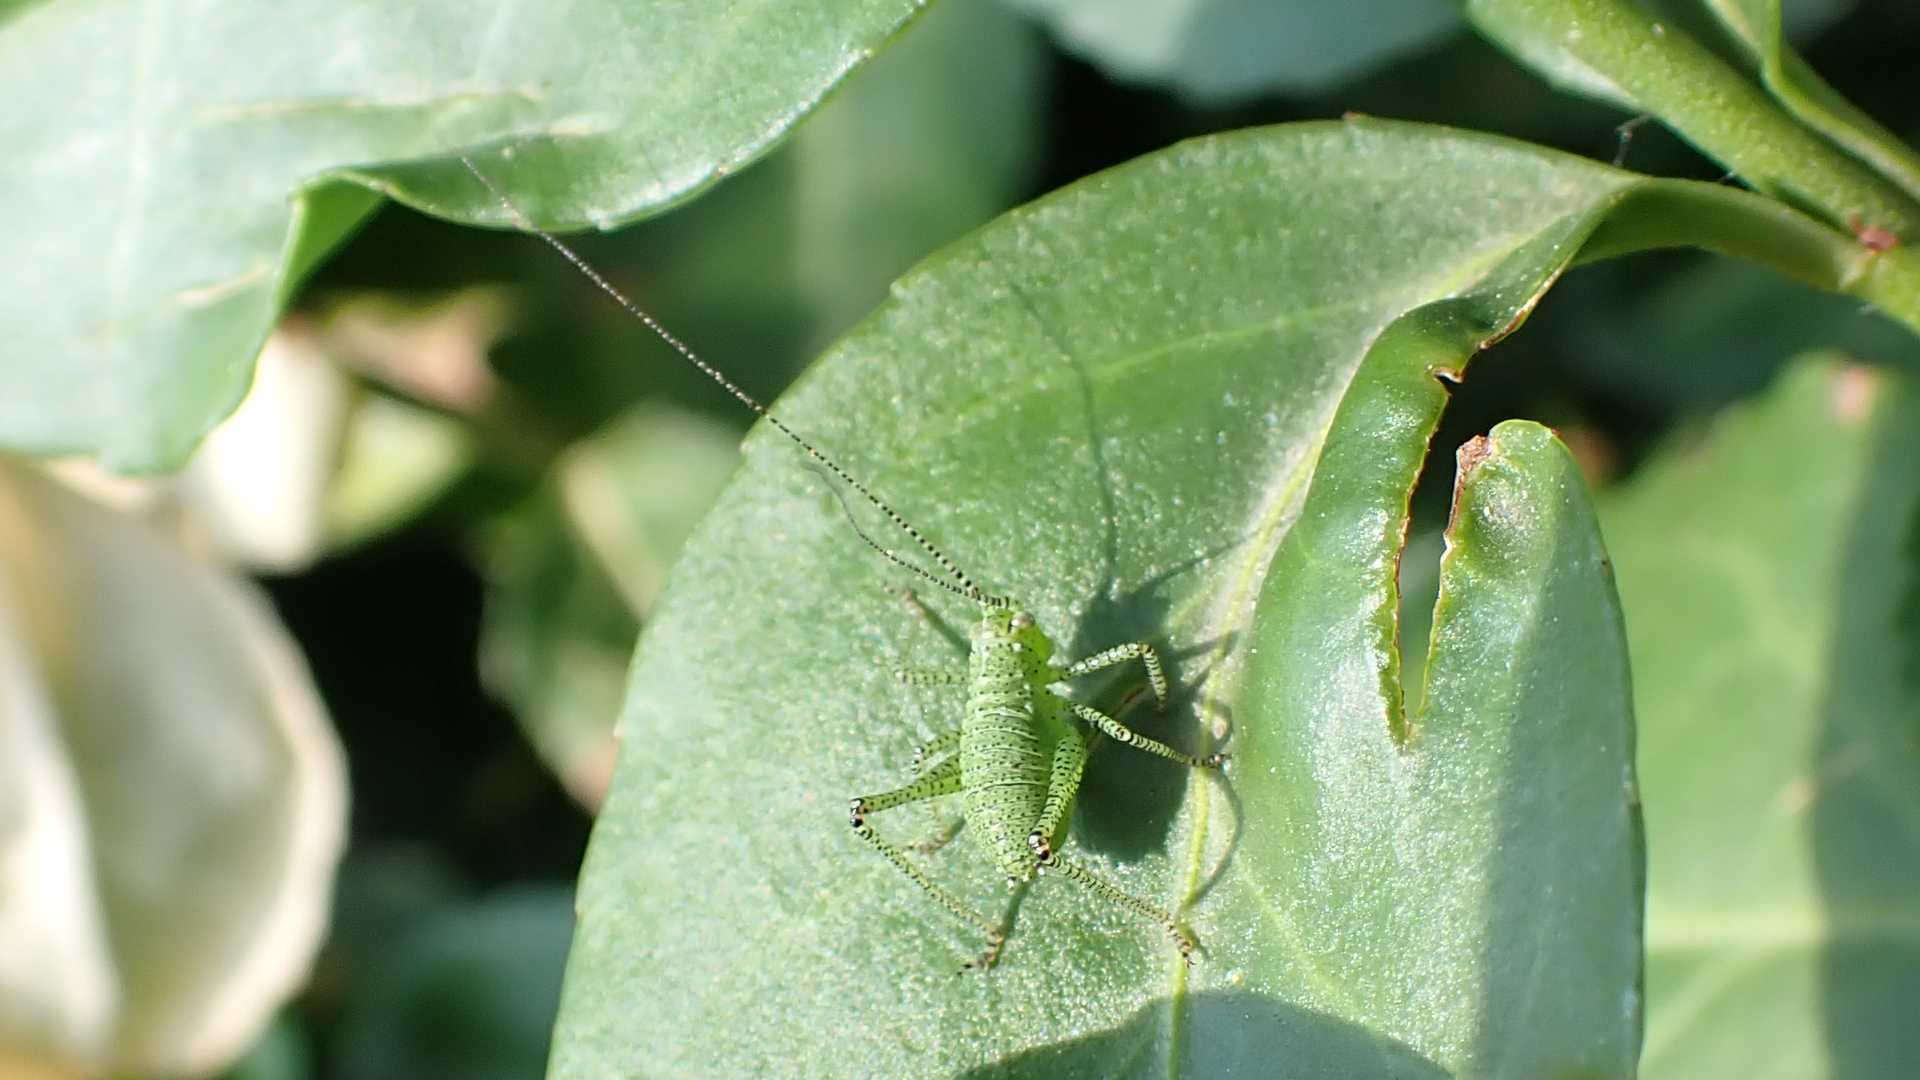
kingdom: Animalia
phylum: Arthropoda
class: Insecta
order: Orthoptera
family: Tettigoniidae
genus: Leptophyes
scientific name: Leptophyes punctatissima
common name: Speckled bush-cricket
